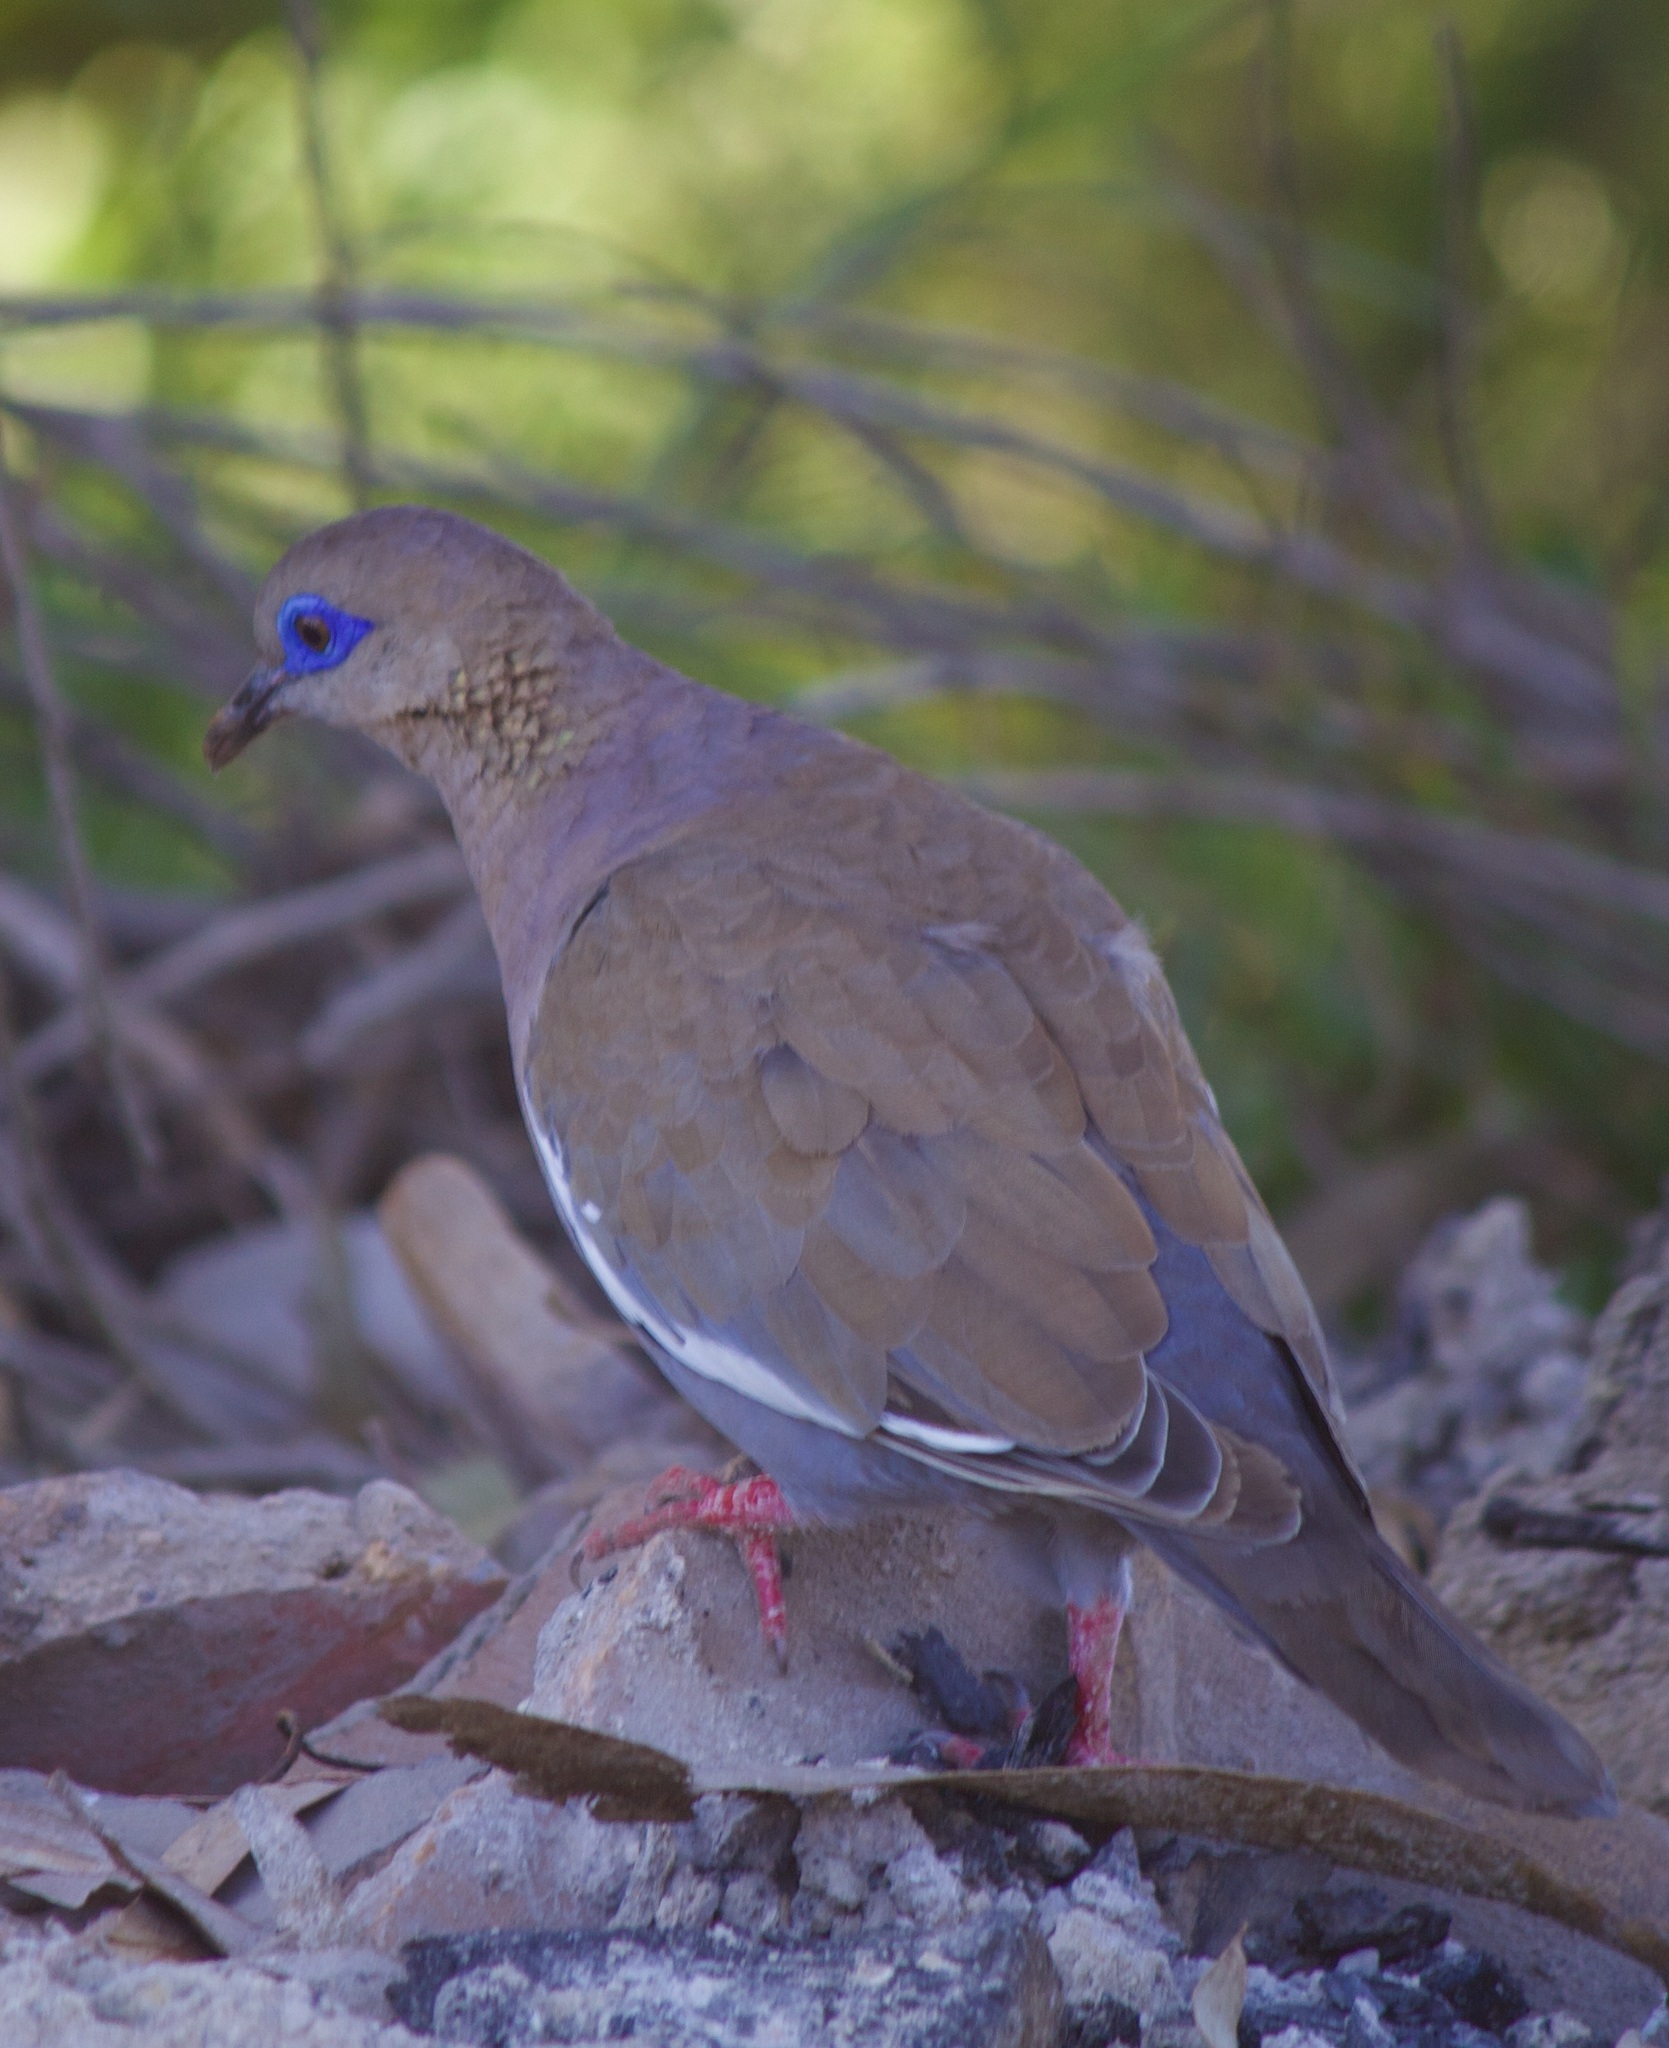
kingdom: Animalia
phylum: Chordata
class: Aves
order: Columbiformes
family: Columbidae
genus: Zenaida
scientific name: Zenaida meloda
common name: West peruvian dove
